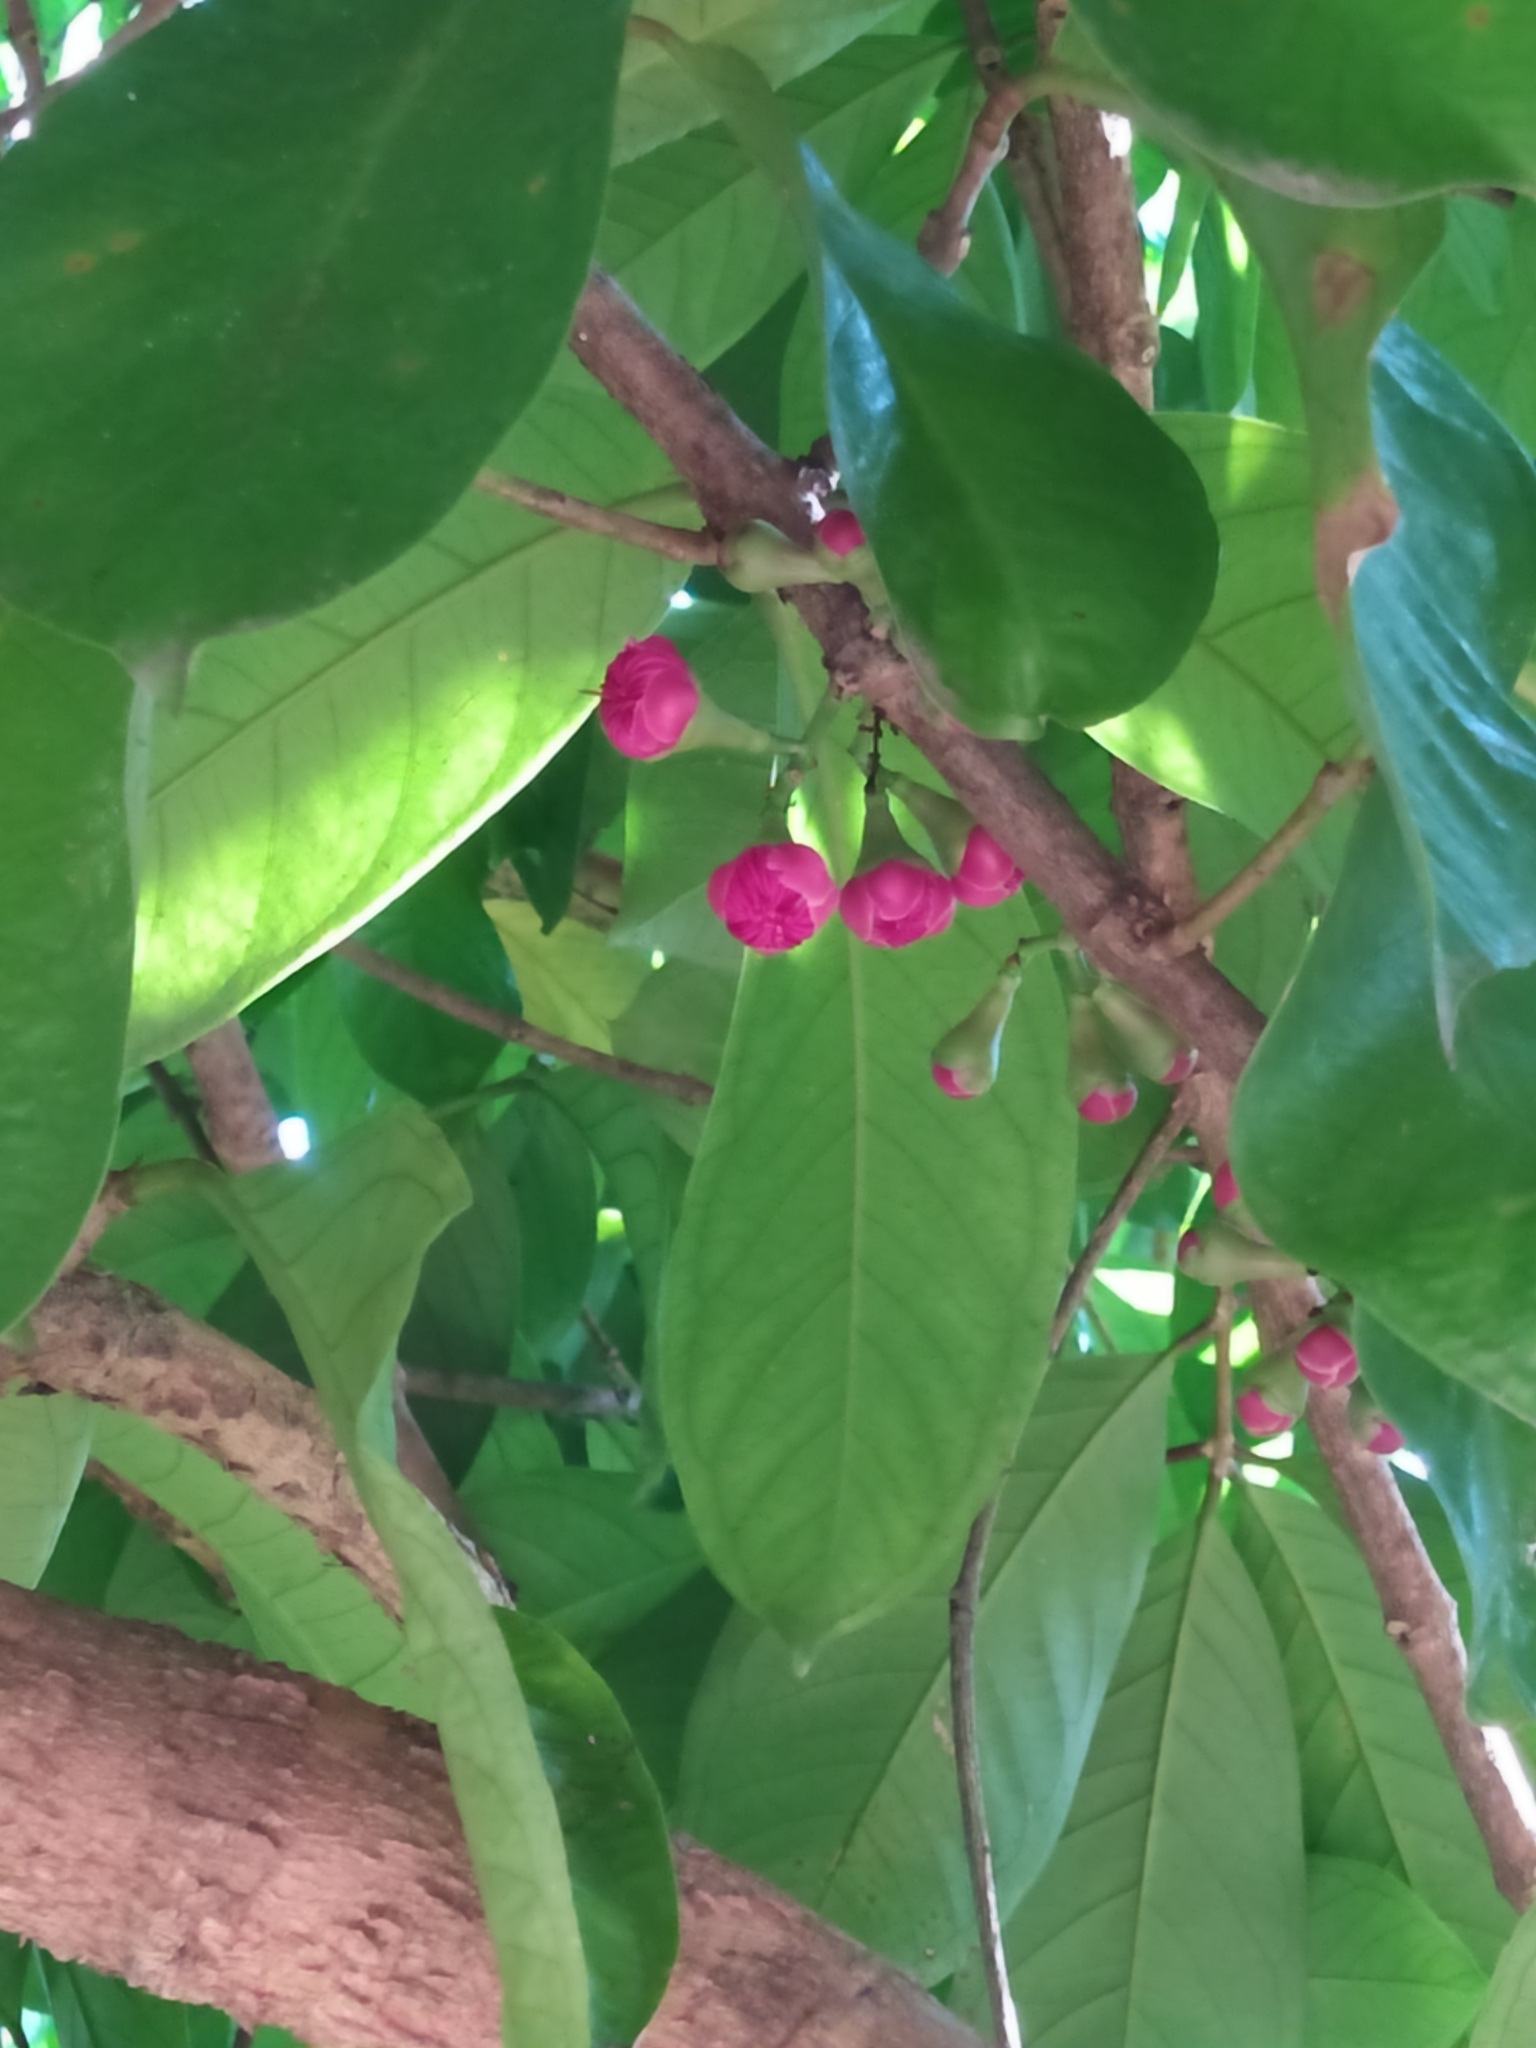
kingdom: Plantae
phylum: Tracheophyta
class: Magnoliopsida
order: Myrtales
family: Myrtaceae
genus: Syzygium
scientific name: Syzygium malaccense
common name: Malaysian apple
